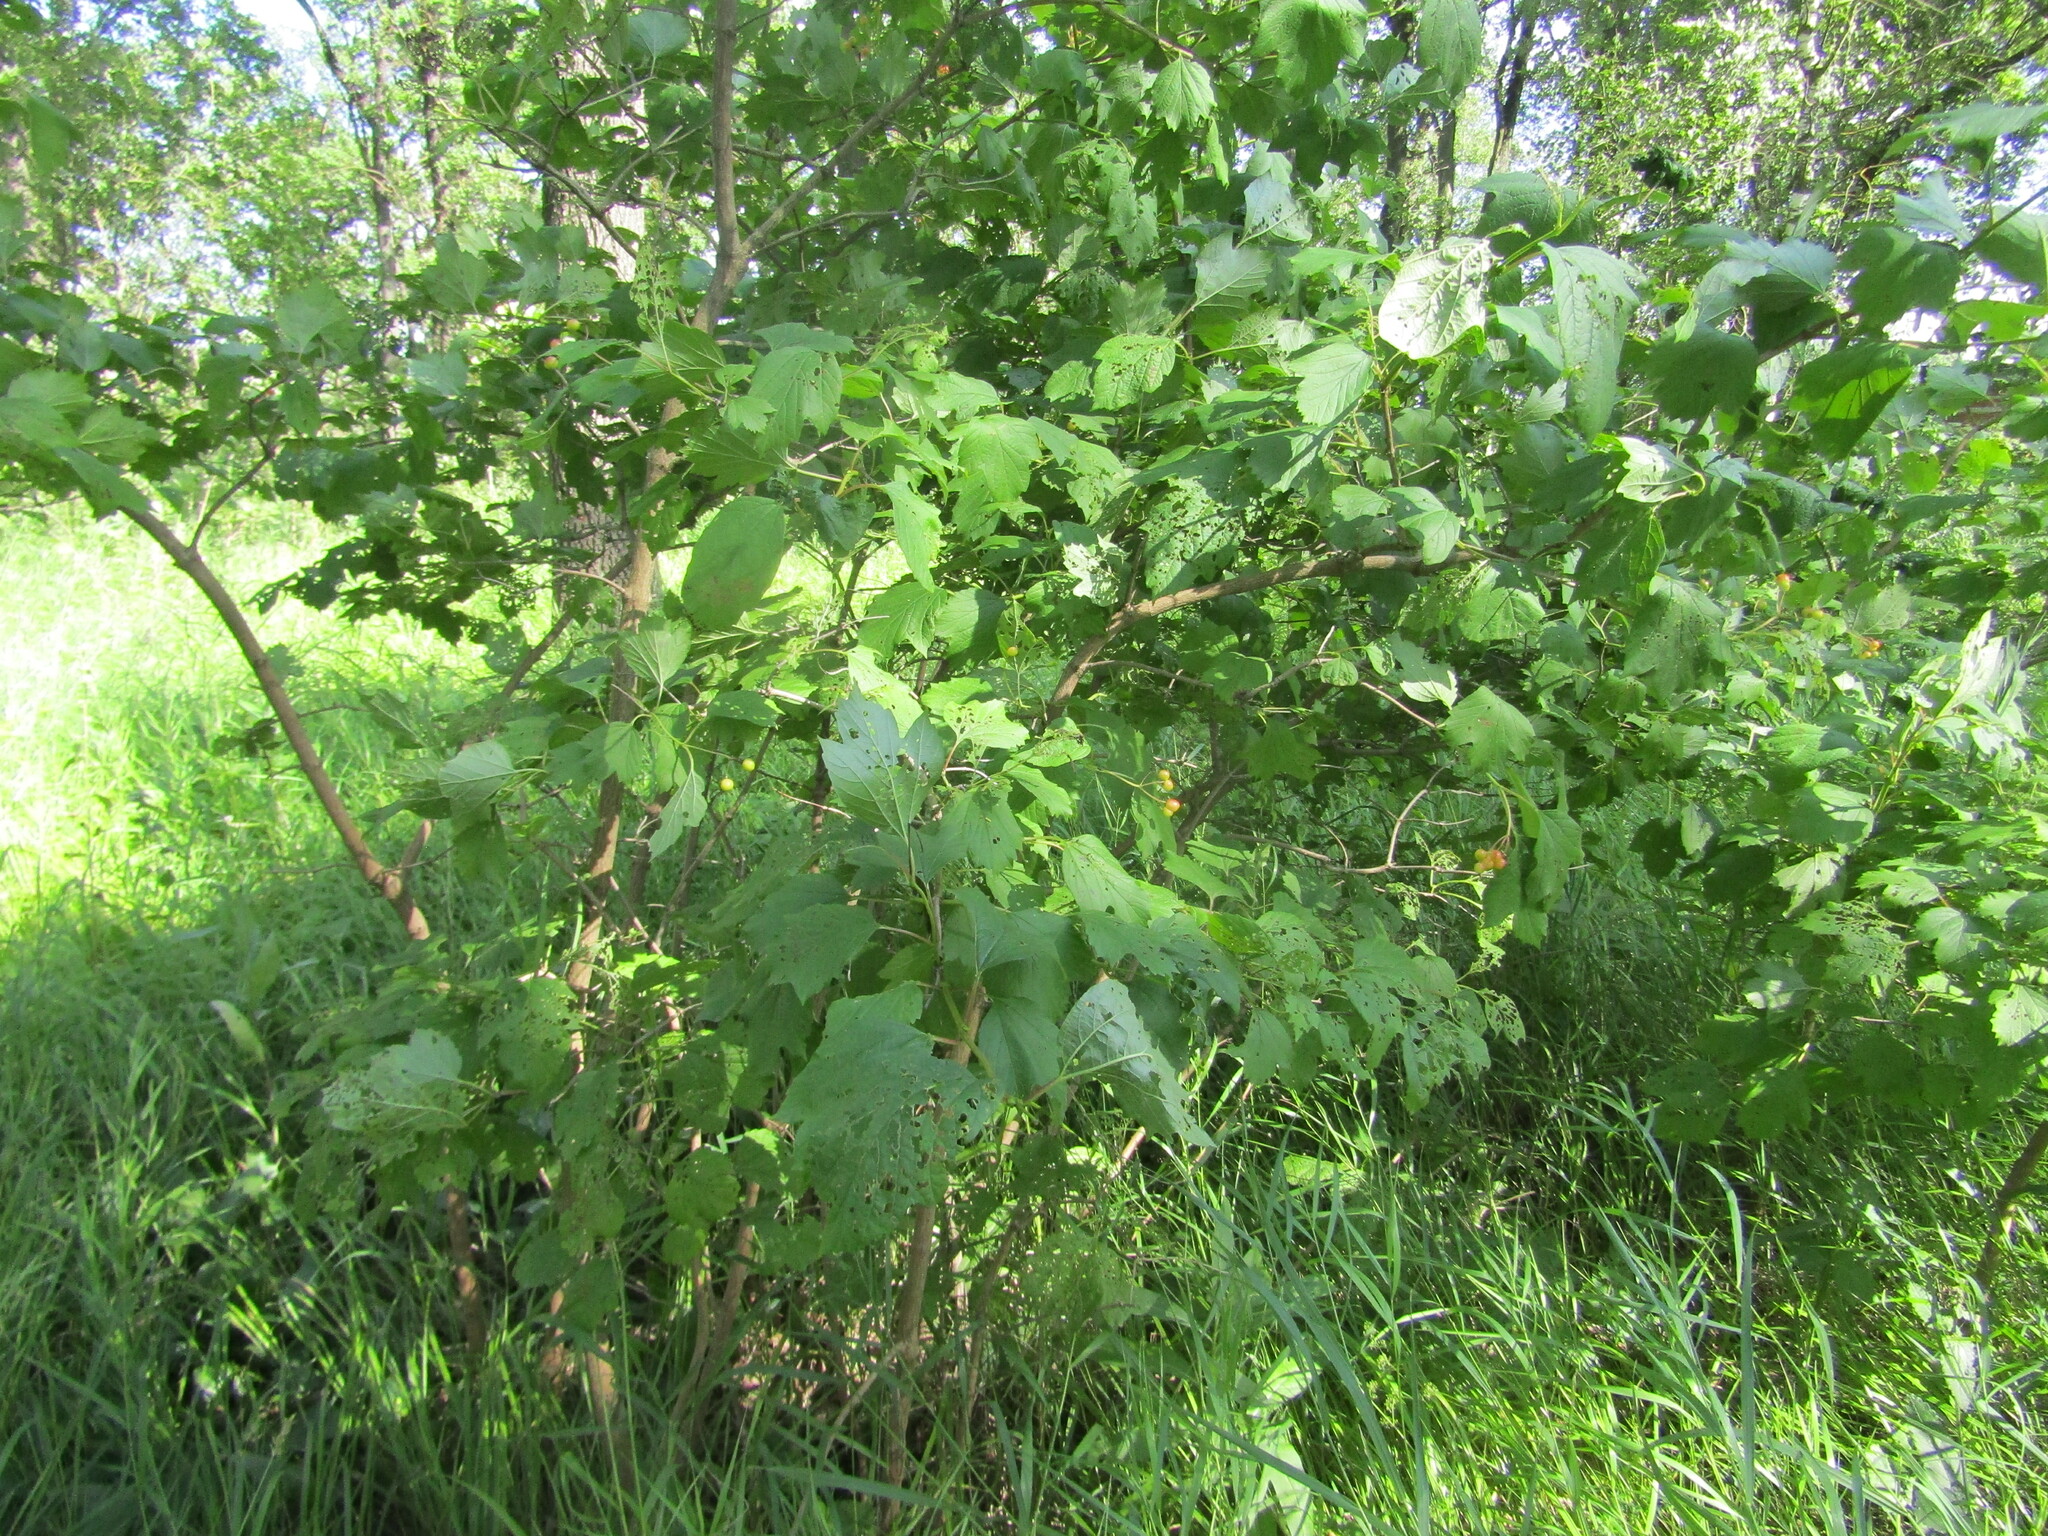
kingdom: Plantae
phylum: Tracheophyta
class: Magnoliopsida
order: Dipsacales
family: Viburnaceae
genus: Viburnum
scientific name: Viburnum opulus
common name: Guelder-rose
